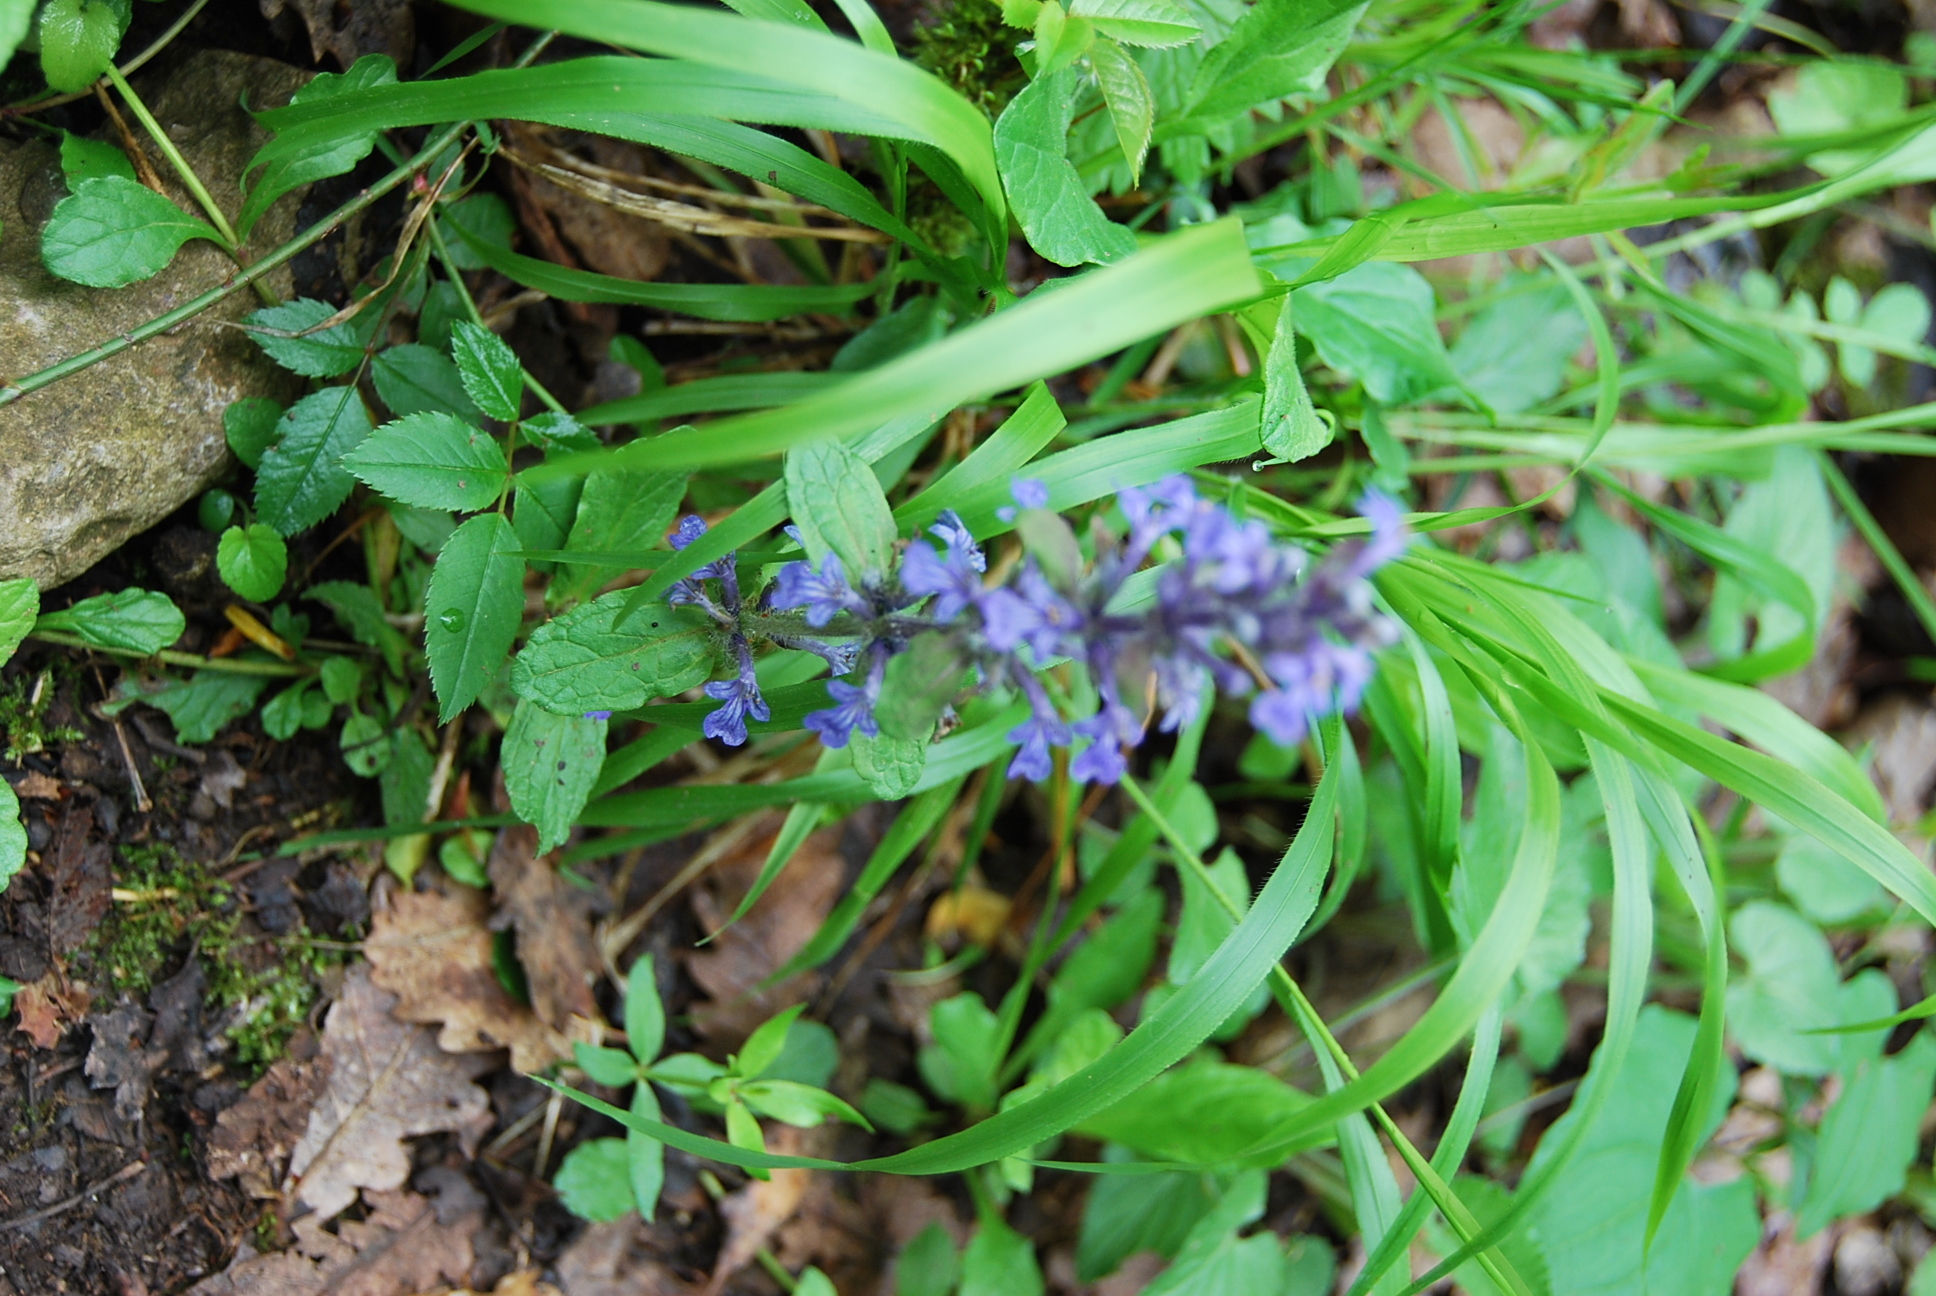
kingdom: Plantae
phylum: Tracheophyta
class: Magnoliopsida
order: Lamiales
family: Lamiaceae
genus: Ajuga
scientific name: Ajuga reptans
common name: Bugle
